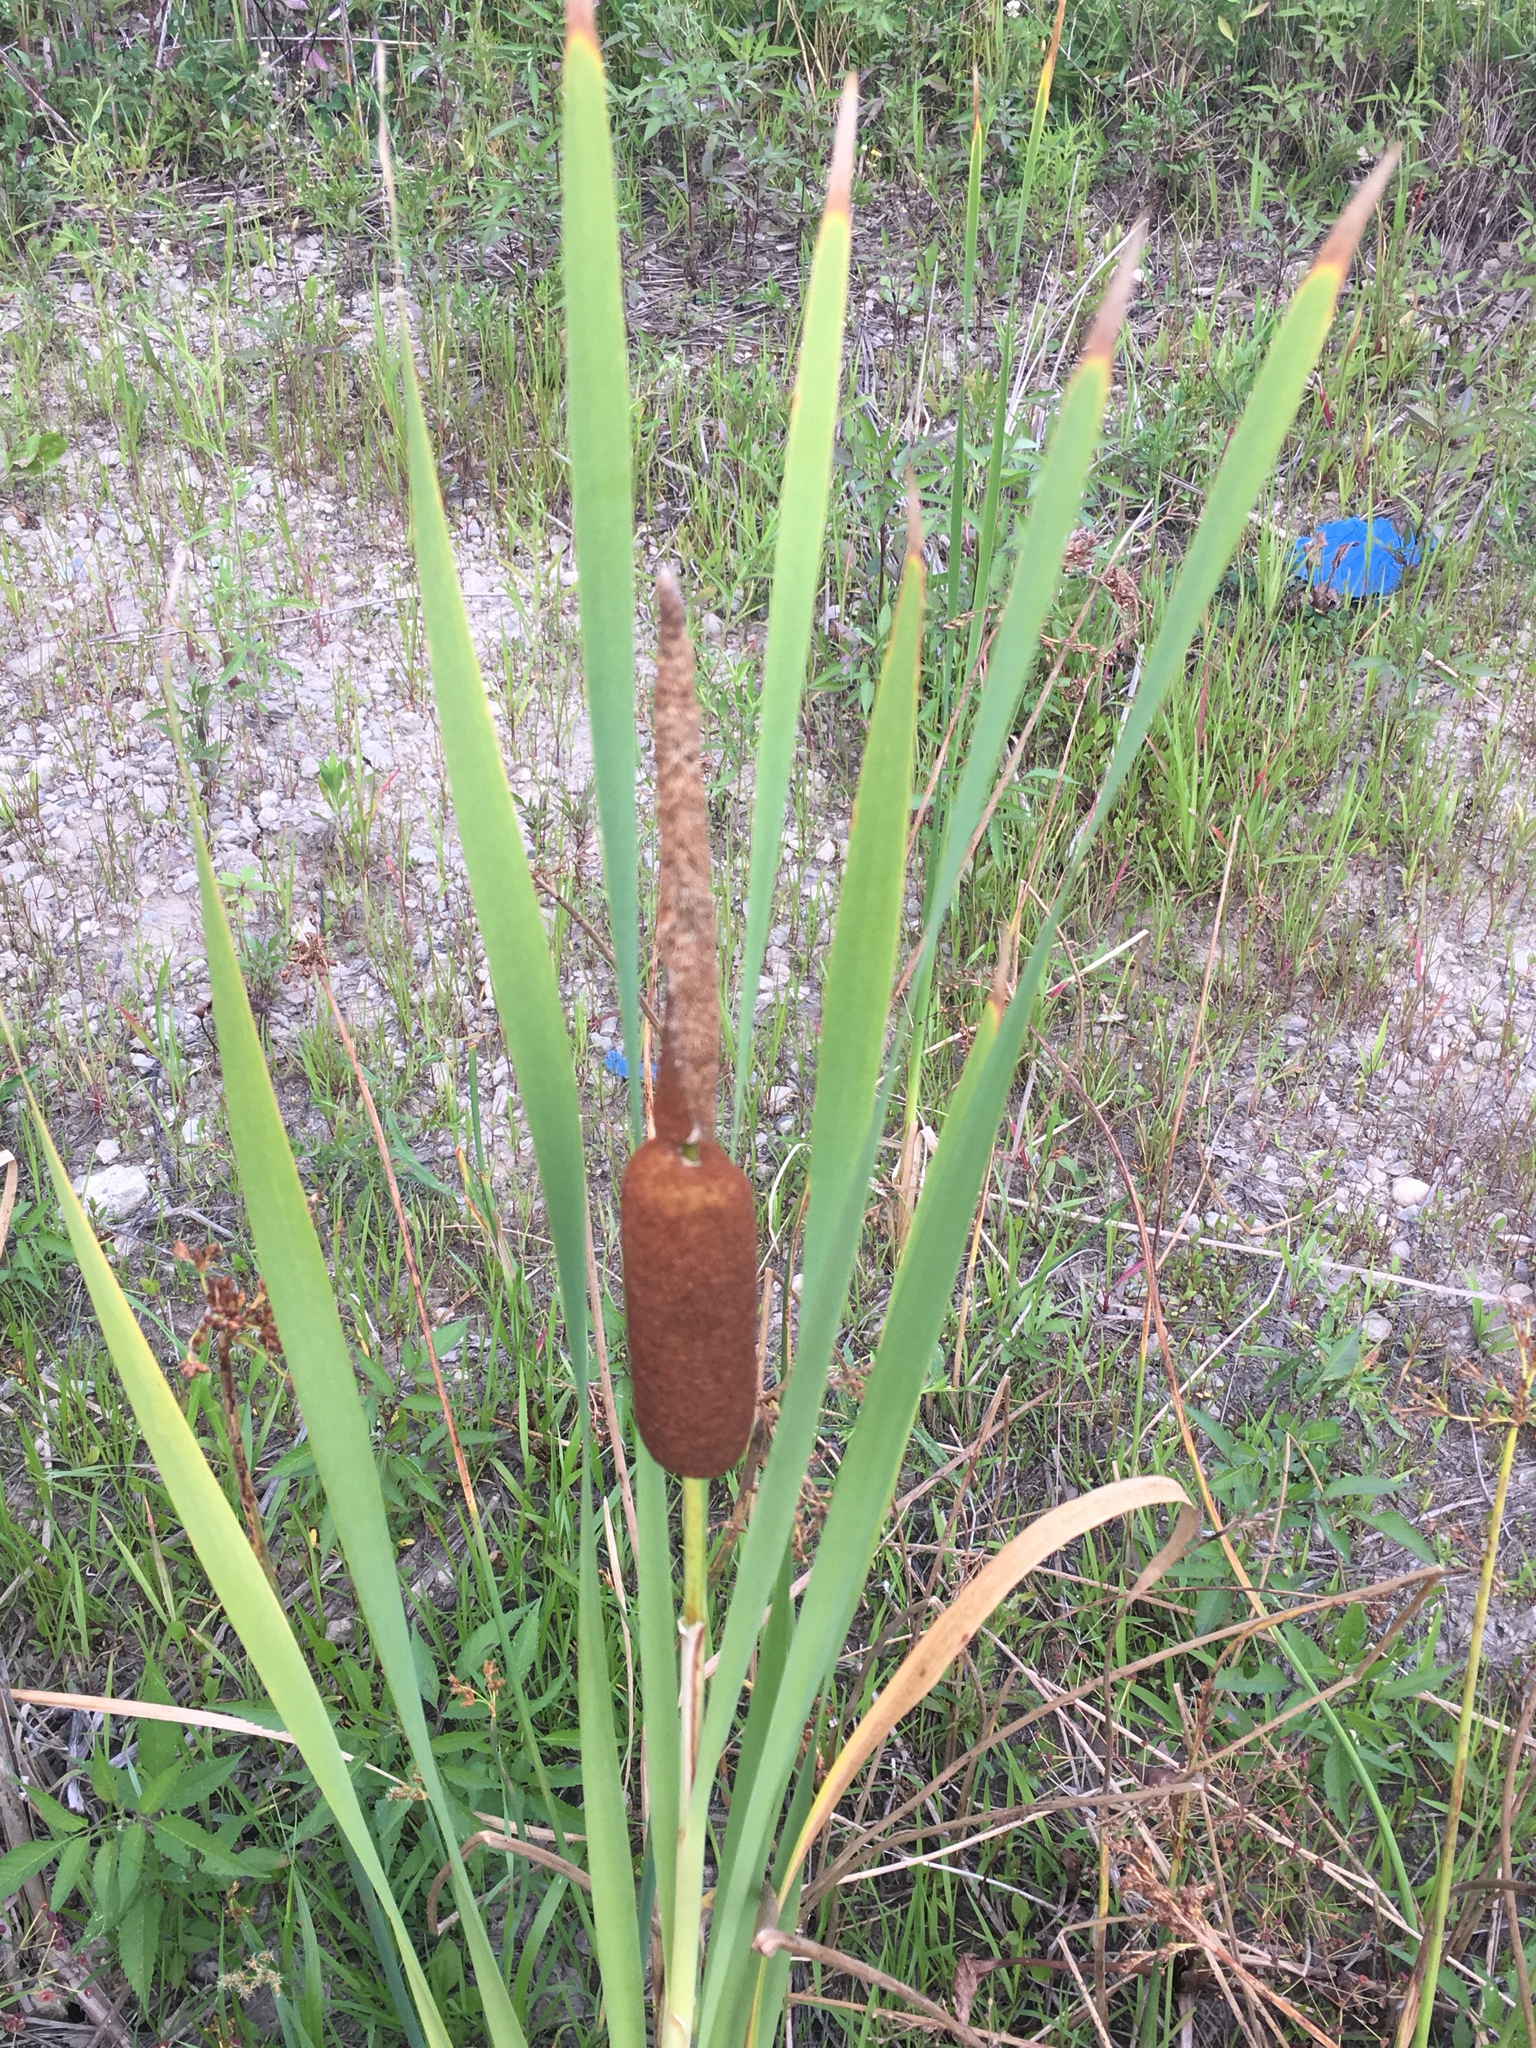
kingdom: Plantae
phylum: Tracheophyta
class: Liliopsida
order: Poales
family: Typhaceae
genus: Typha
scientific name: Typha latifolia
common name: Broadleaf cattail
